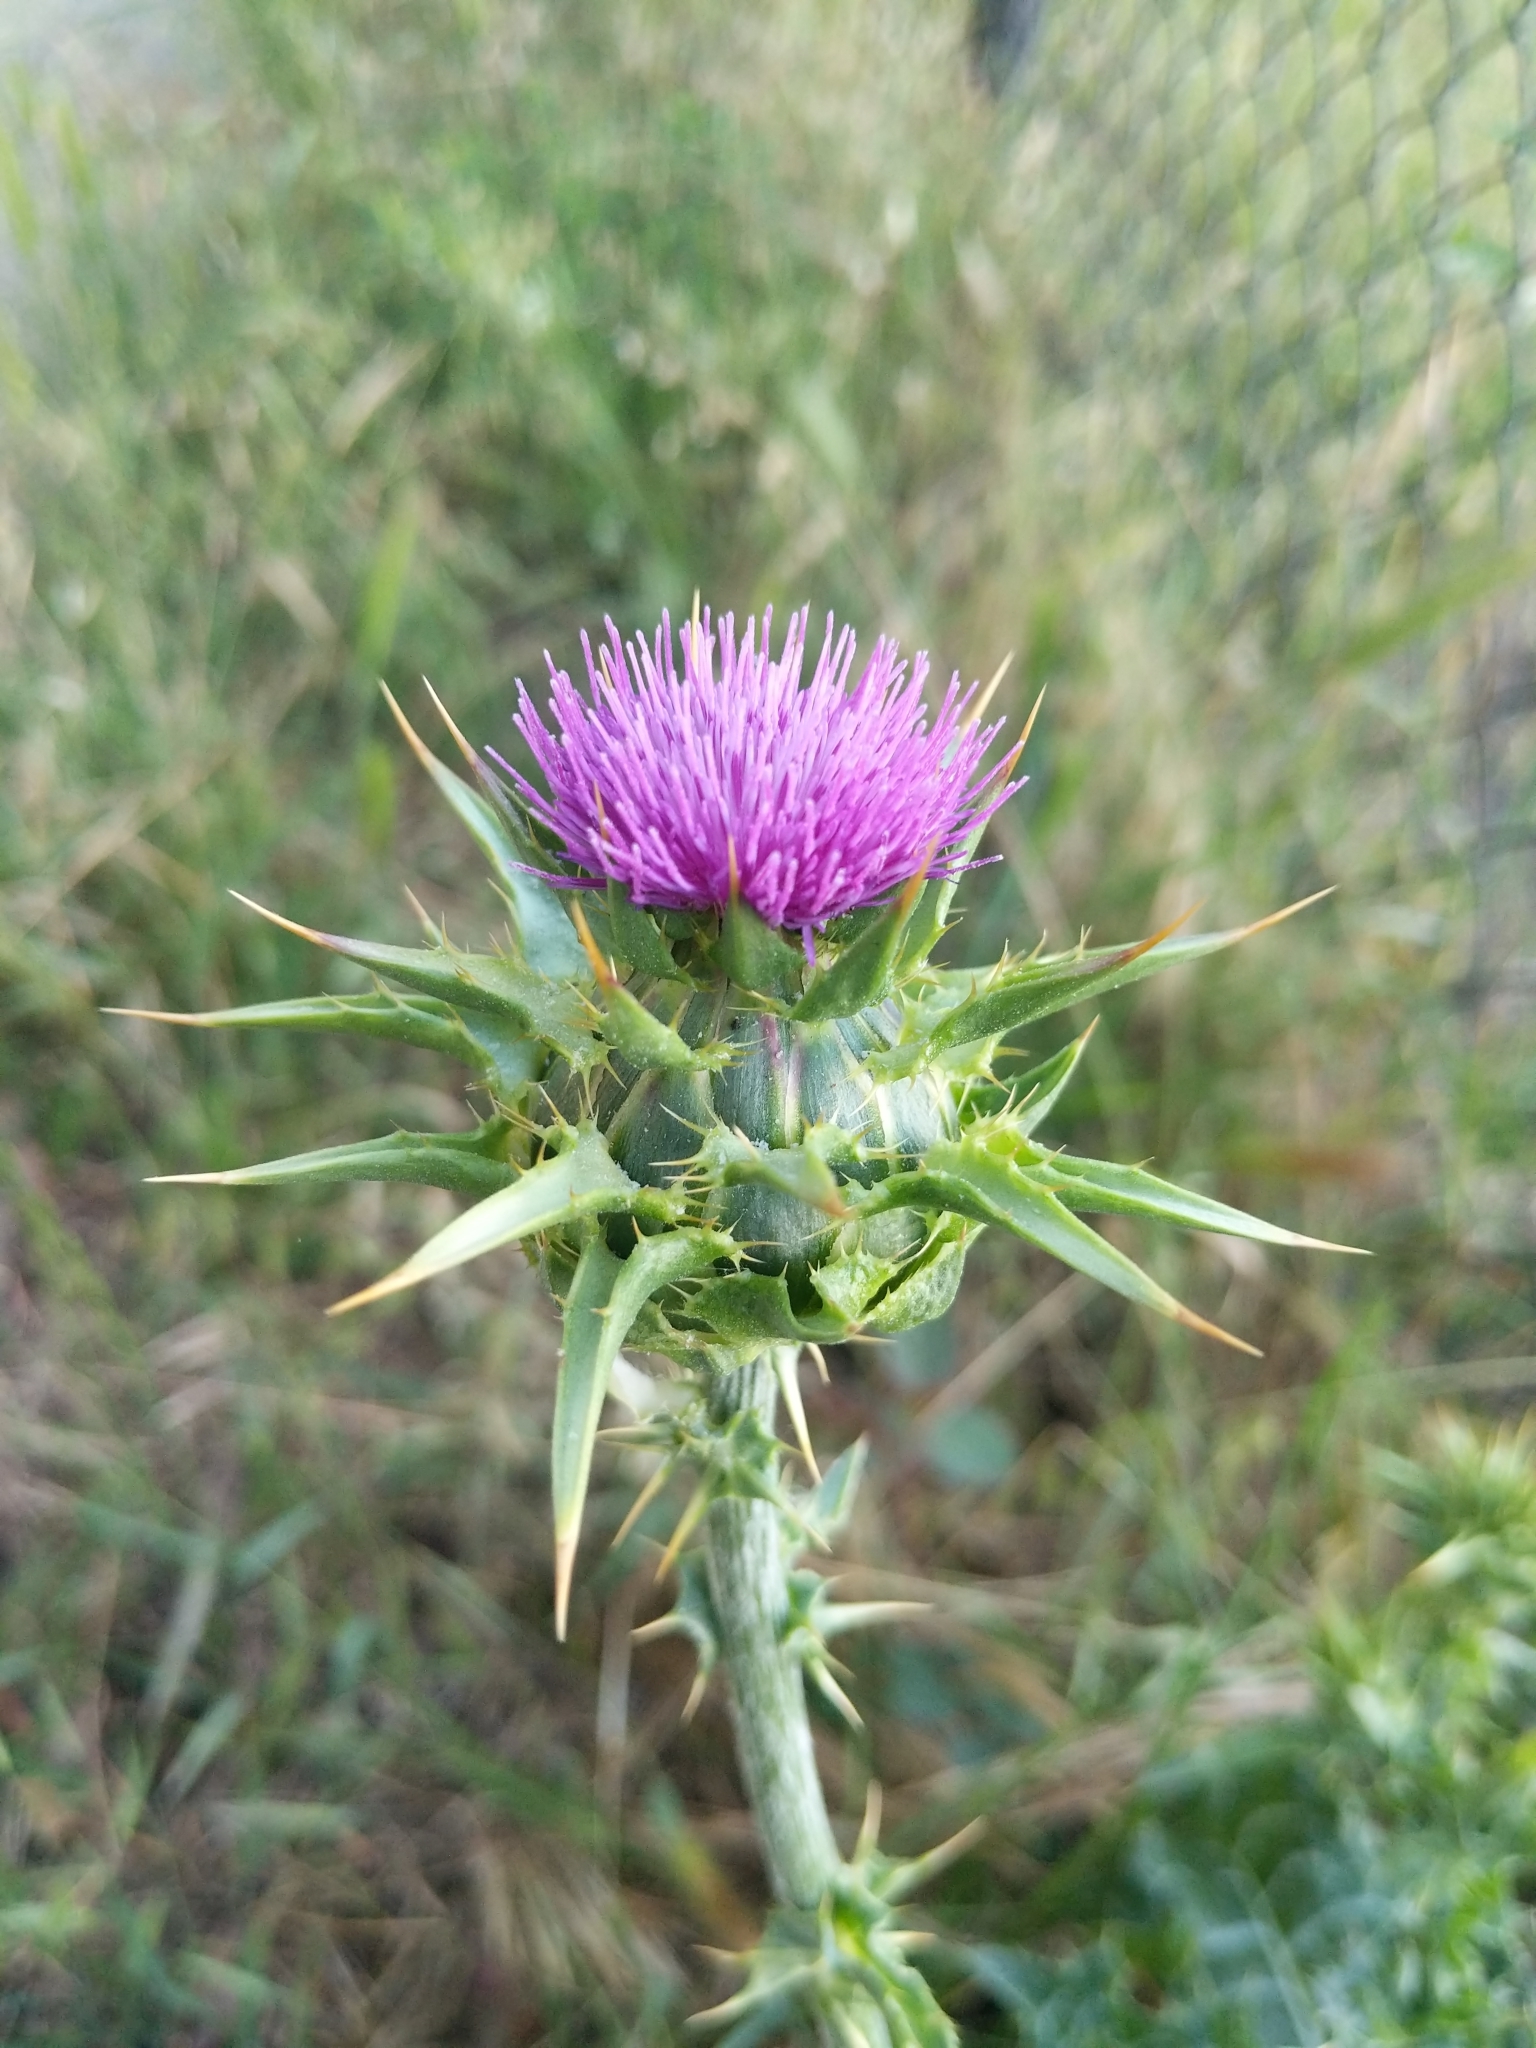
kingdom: Plantae
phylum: Tracheophyta
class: Magnoliopsida
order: Asterales
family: Asteraceae
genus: Silybum
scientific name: Silybum marianum
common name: Milk thistle
